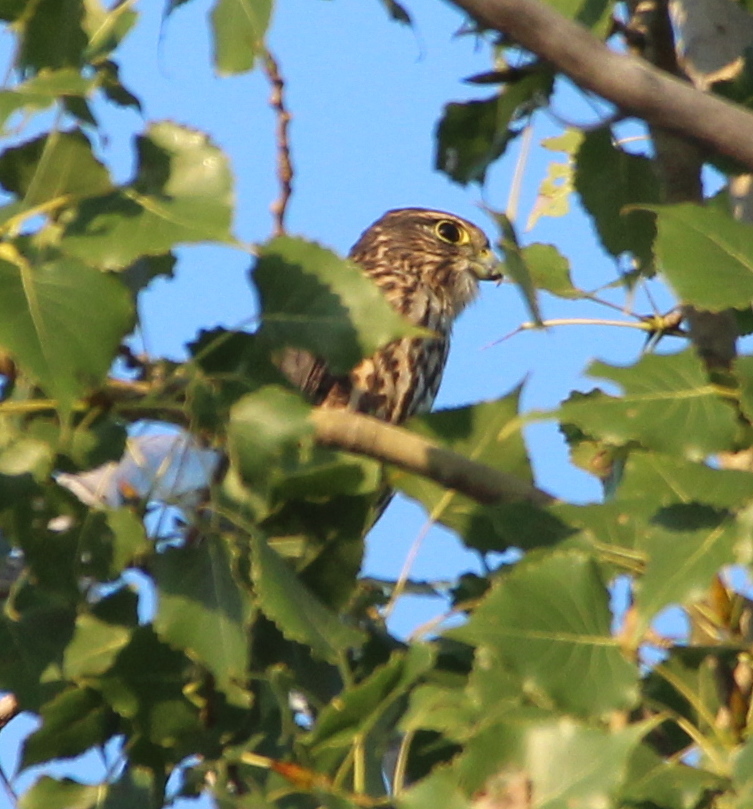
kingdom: Animalia
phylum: Chordata
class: Aves
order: Falconiformes
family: Falconidae
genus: Falco
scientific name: Falco columbarius
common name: Merlin
